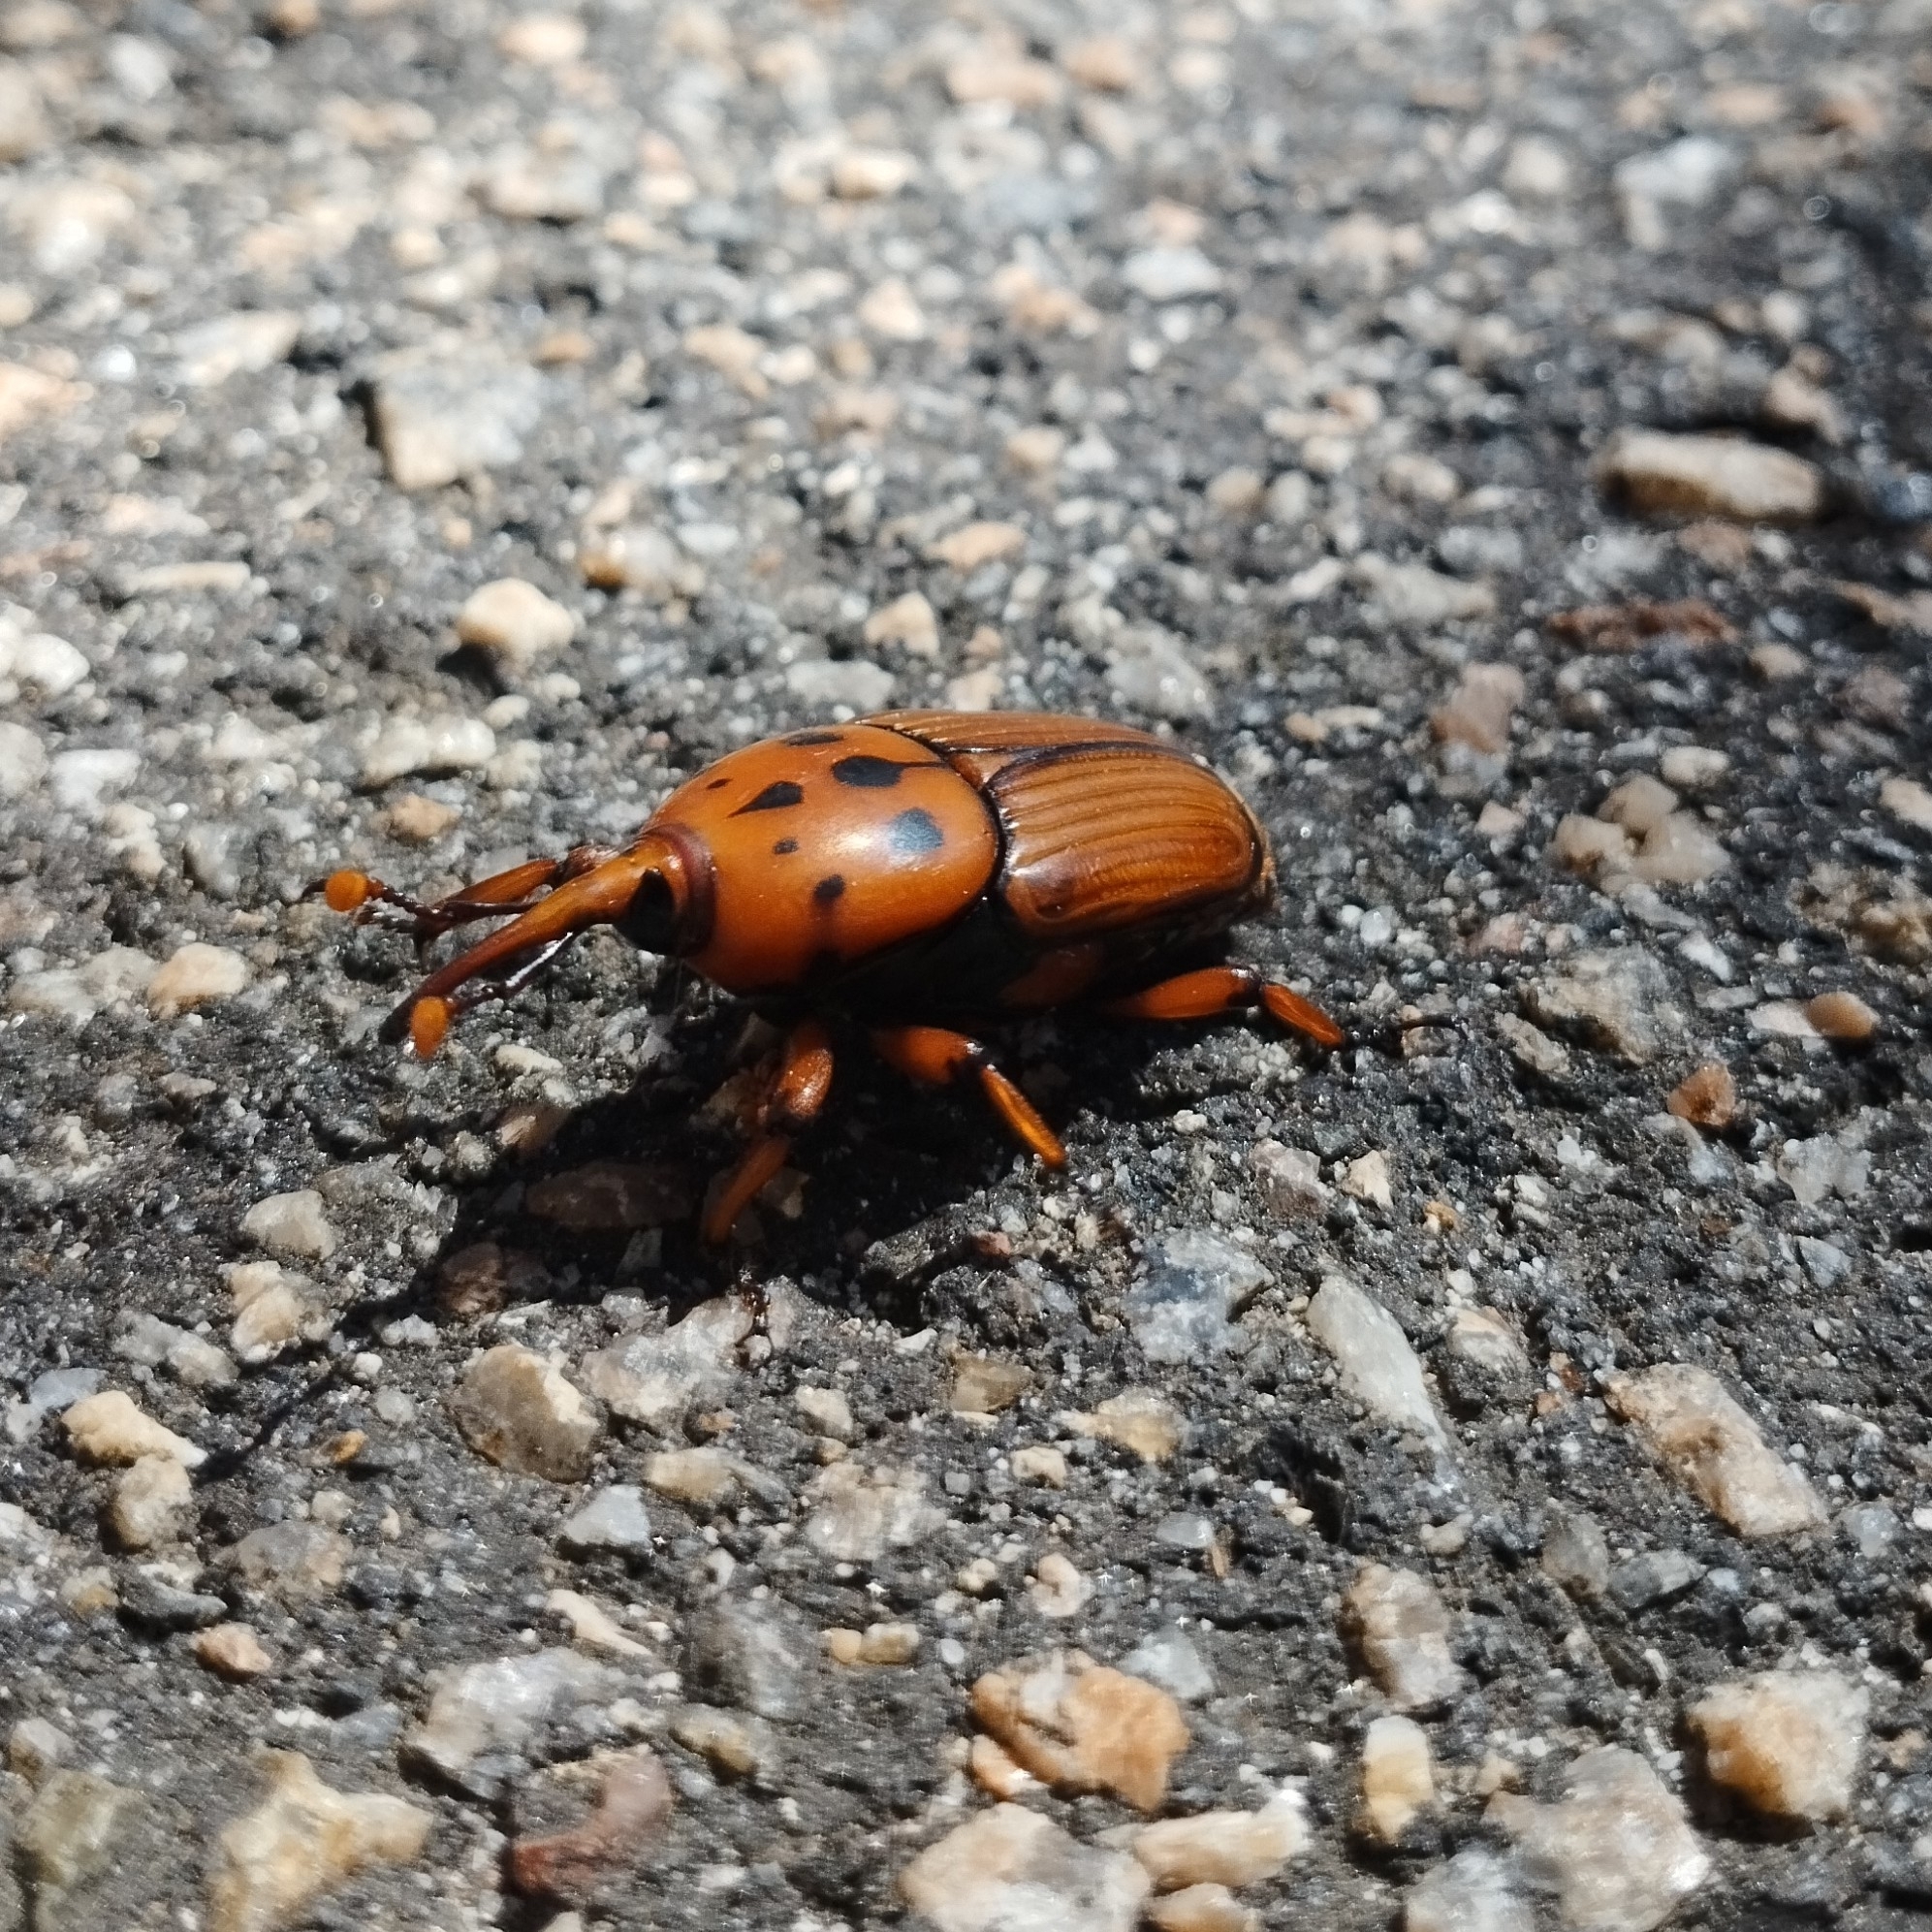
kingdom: Animalia
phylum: Arthropoda
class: Insecta
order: Coleoptera
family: Dryophthoridae
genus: Rhynchophorus
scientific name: Rhynchophorus ferrugineus
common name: Red palm weevil
